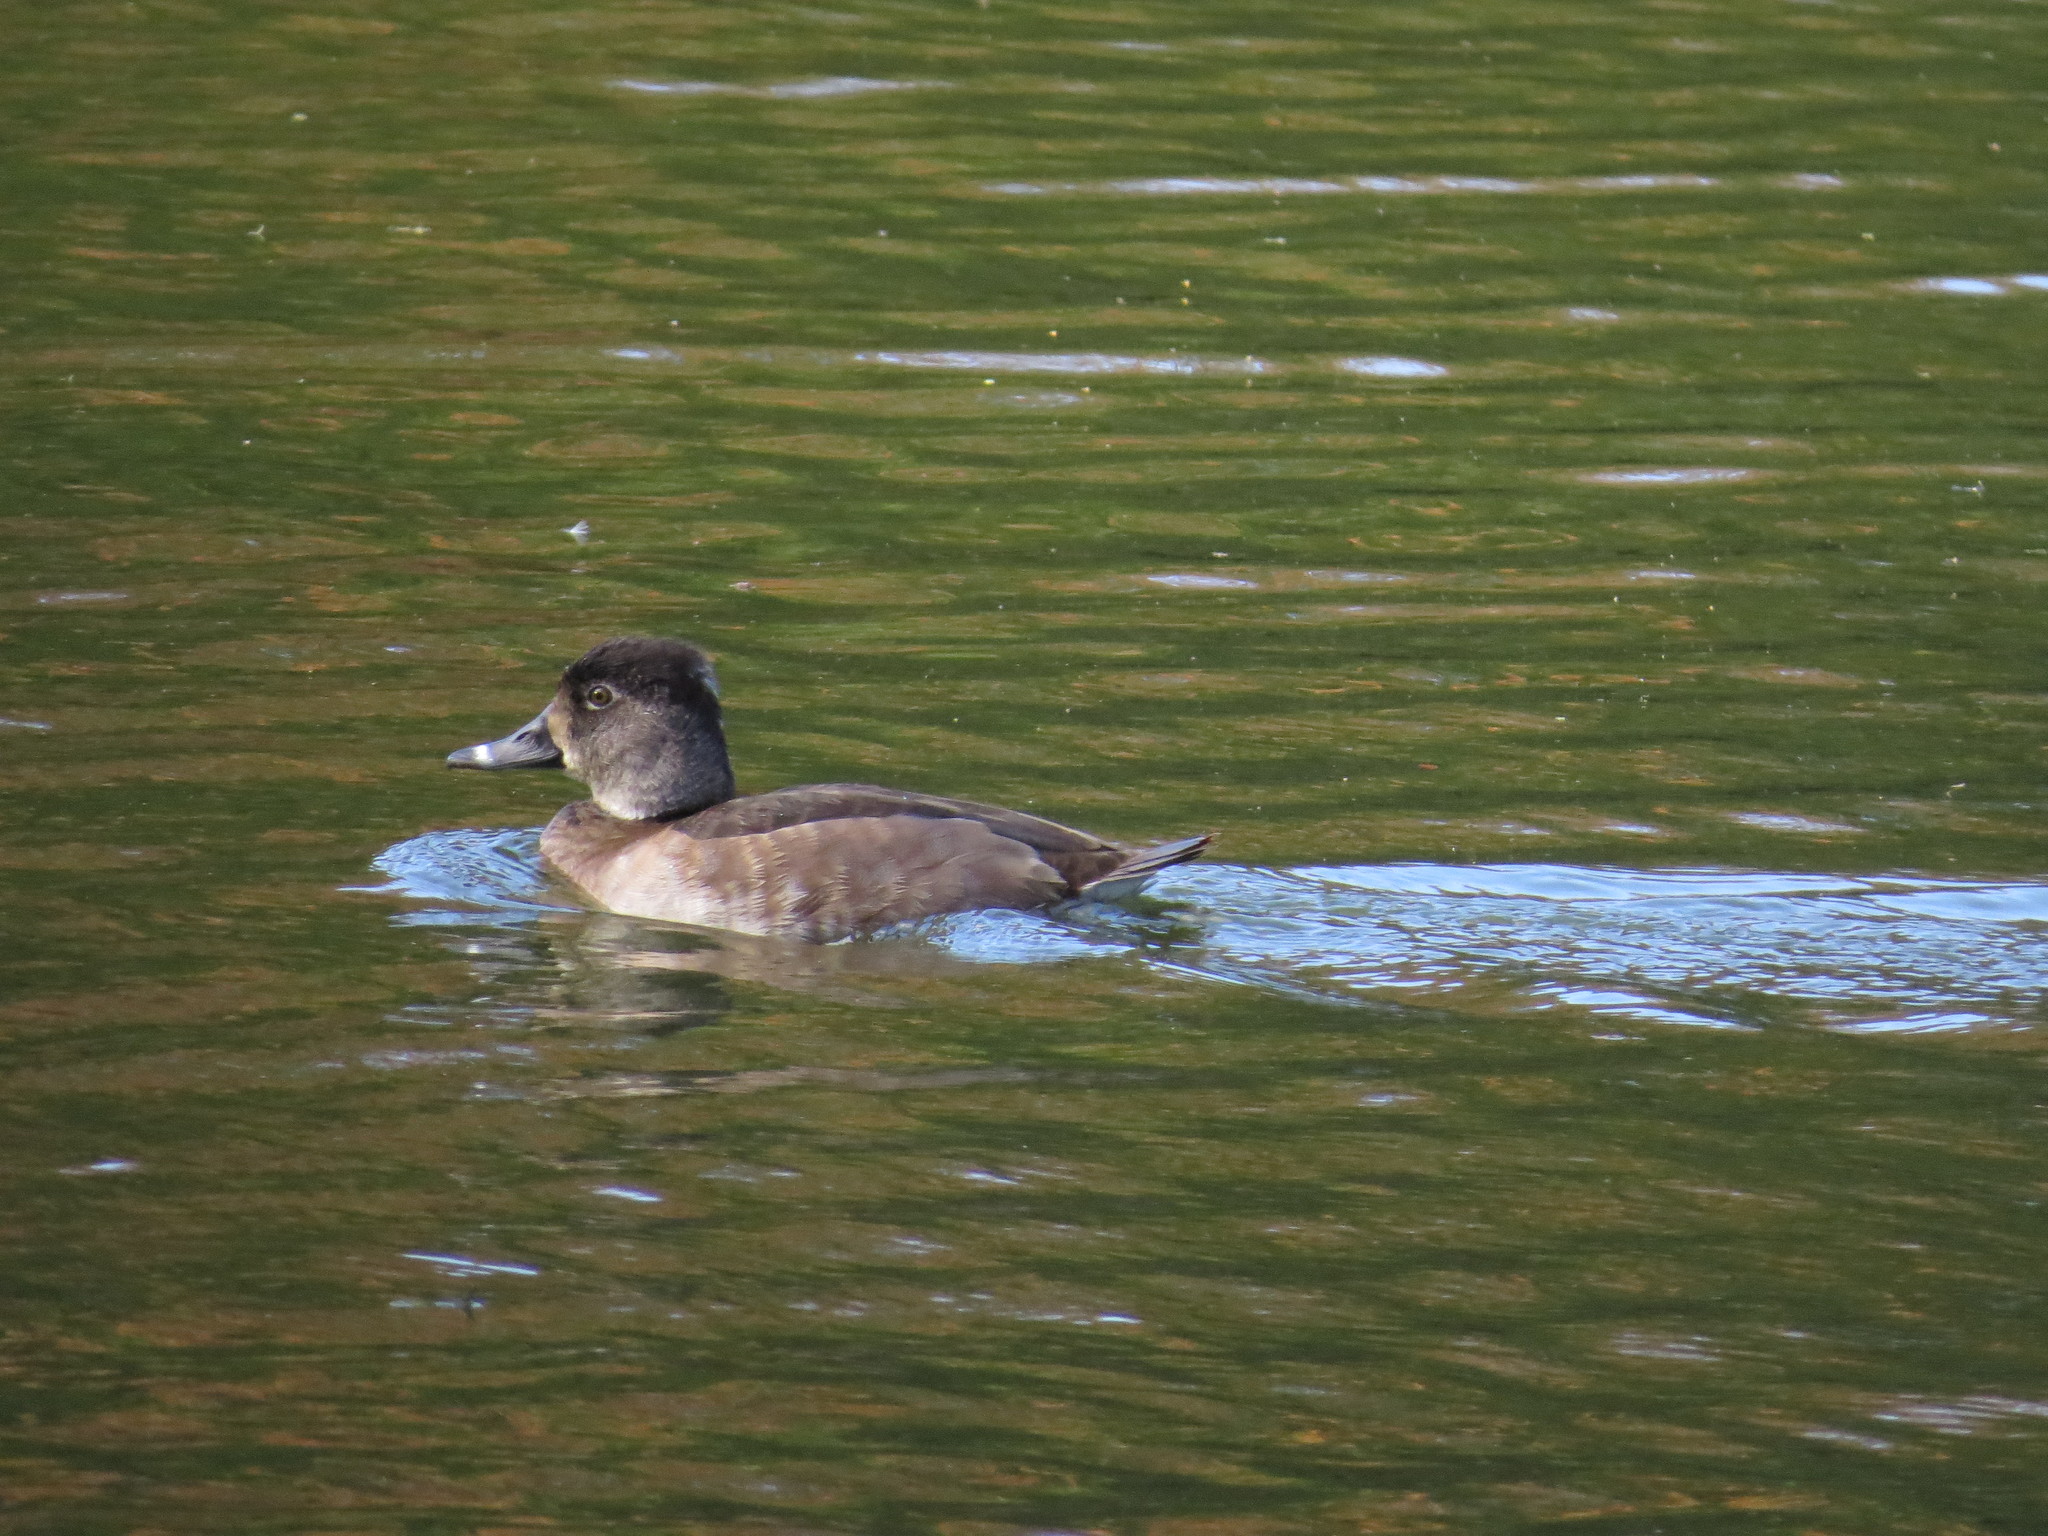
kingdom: Animalia
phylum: Chordata
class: Aves
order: Anseriformes
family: Anatidae
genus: Aythya
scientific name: Aythya collaris
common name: Ring-necked duck
